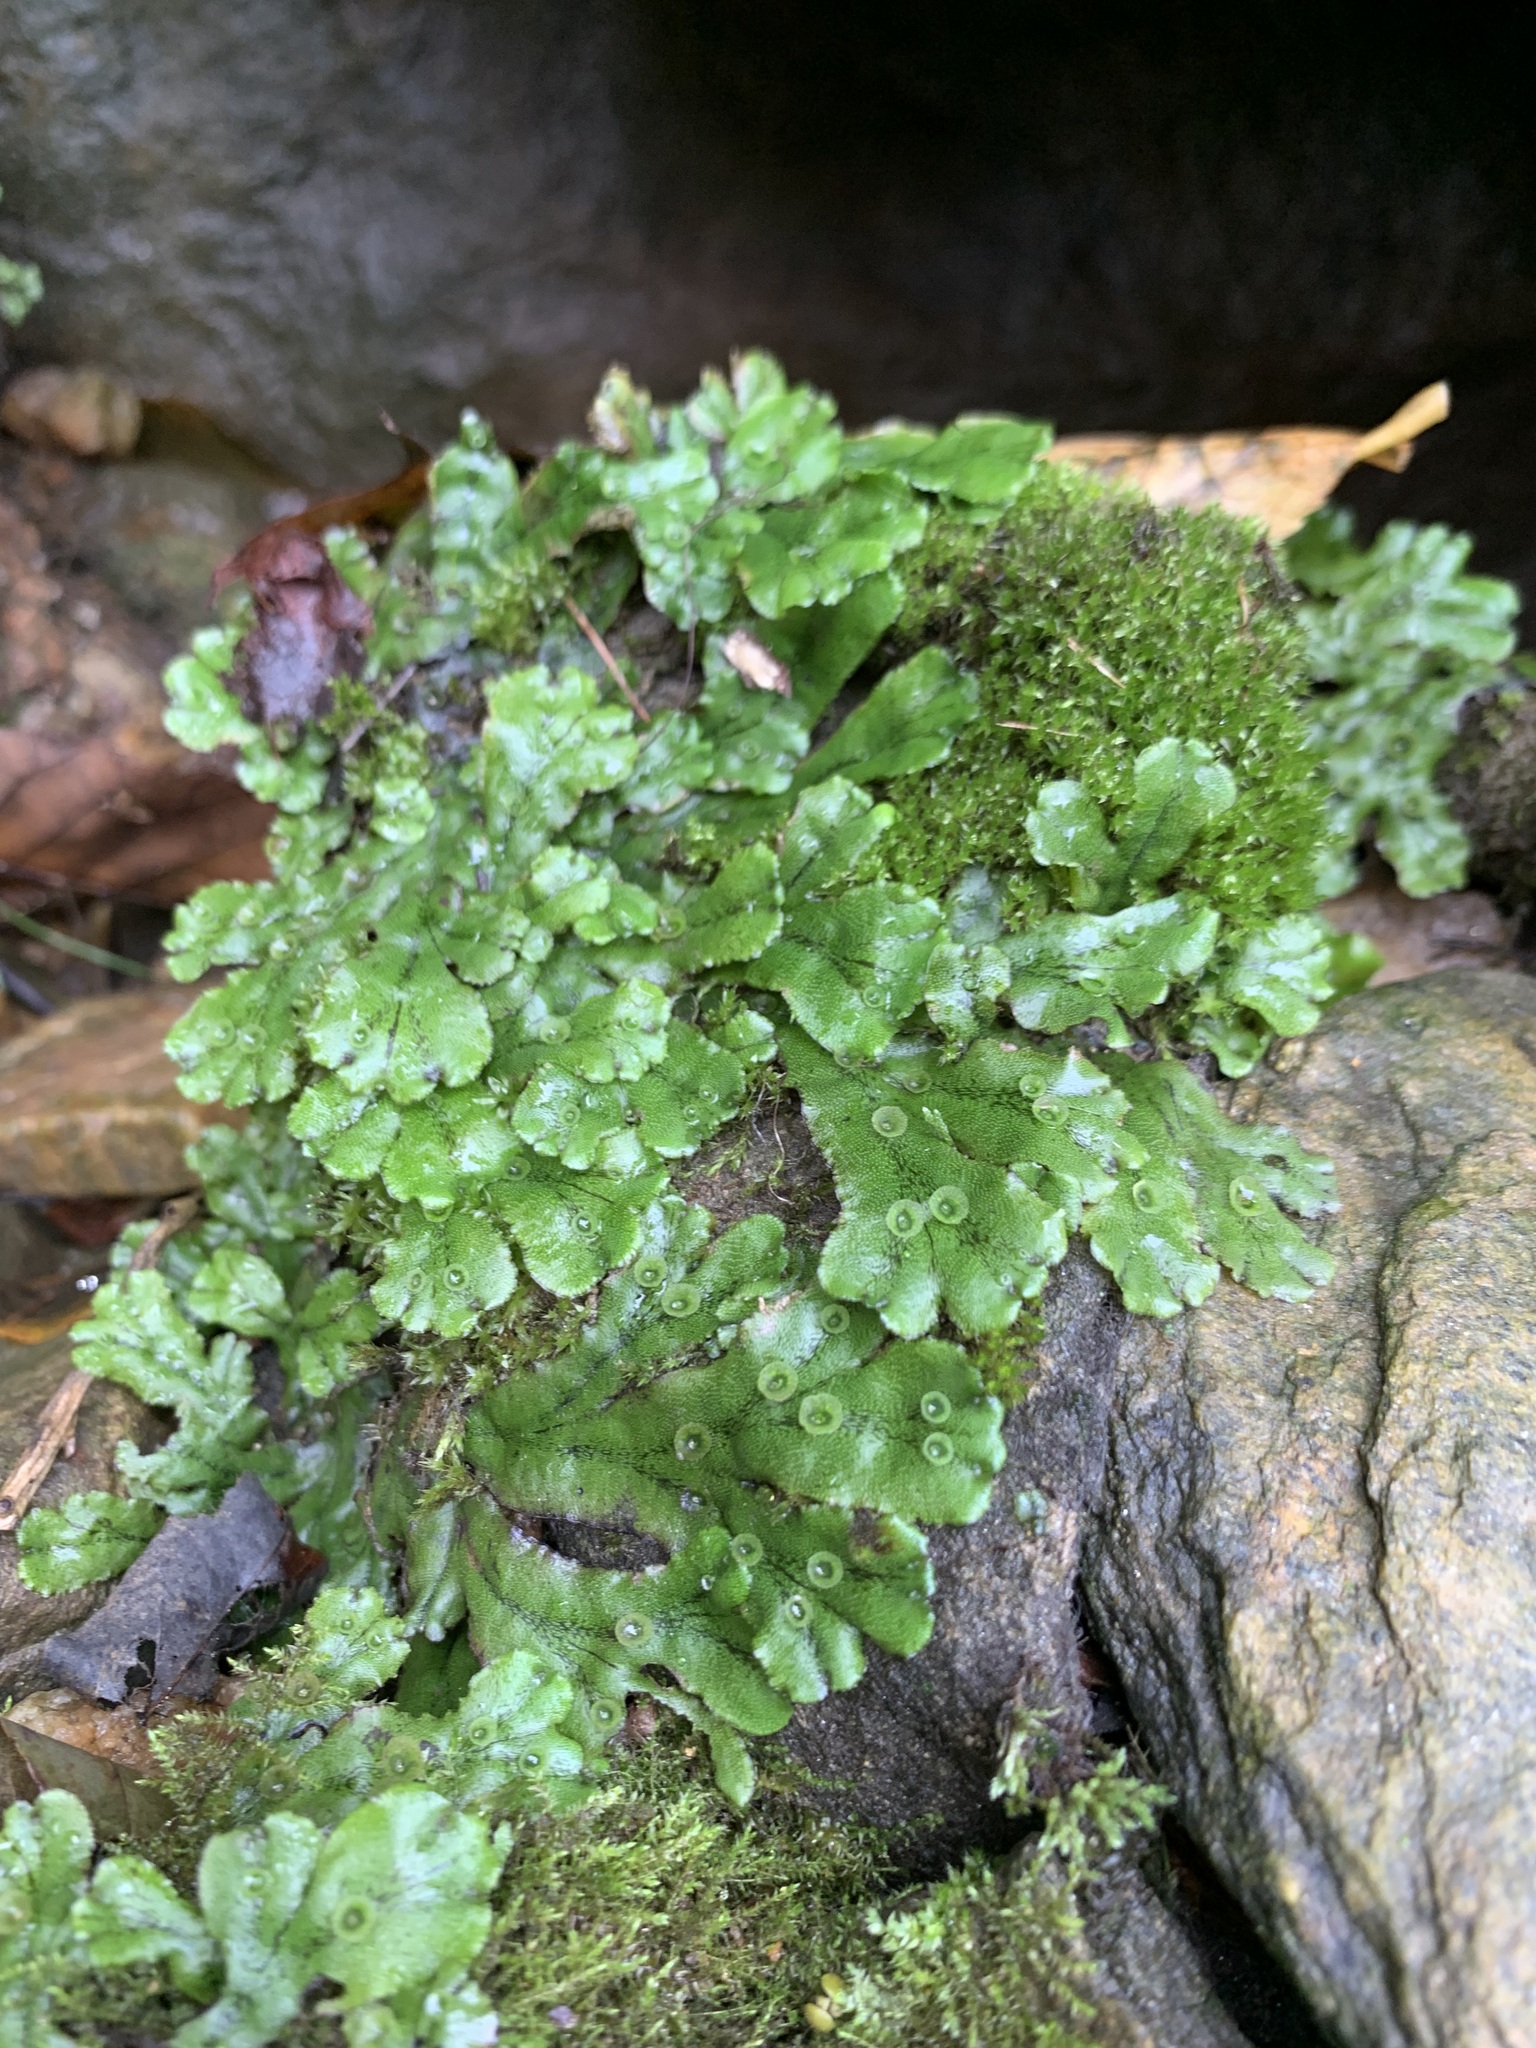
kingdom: Plantae
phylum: Marchantiophyta
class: Marchantiopsida
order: Marchantiales
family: Marchantiaceae
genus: Marchantia
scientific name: Marchantia polymorpha
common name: Common liverwort
